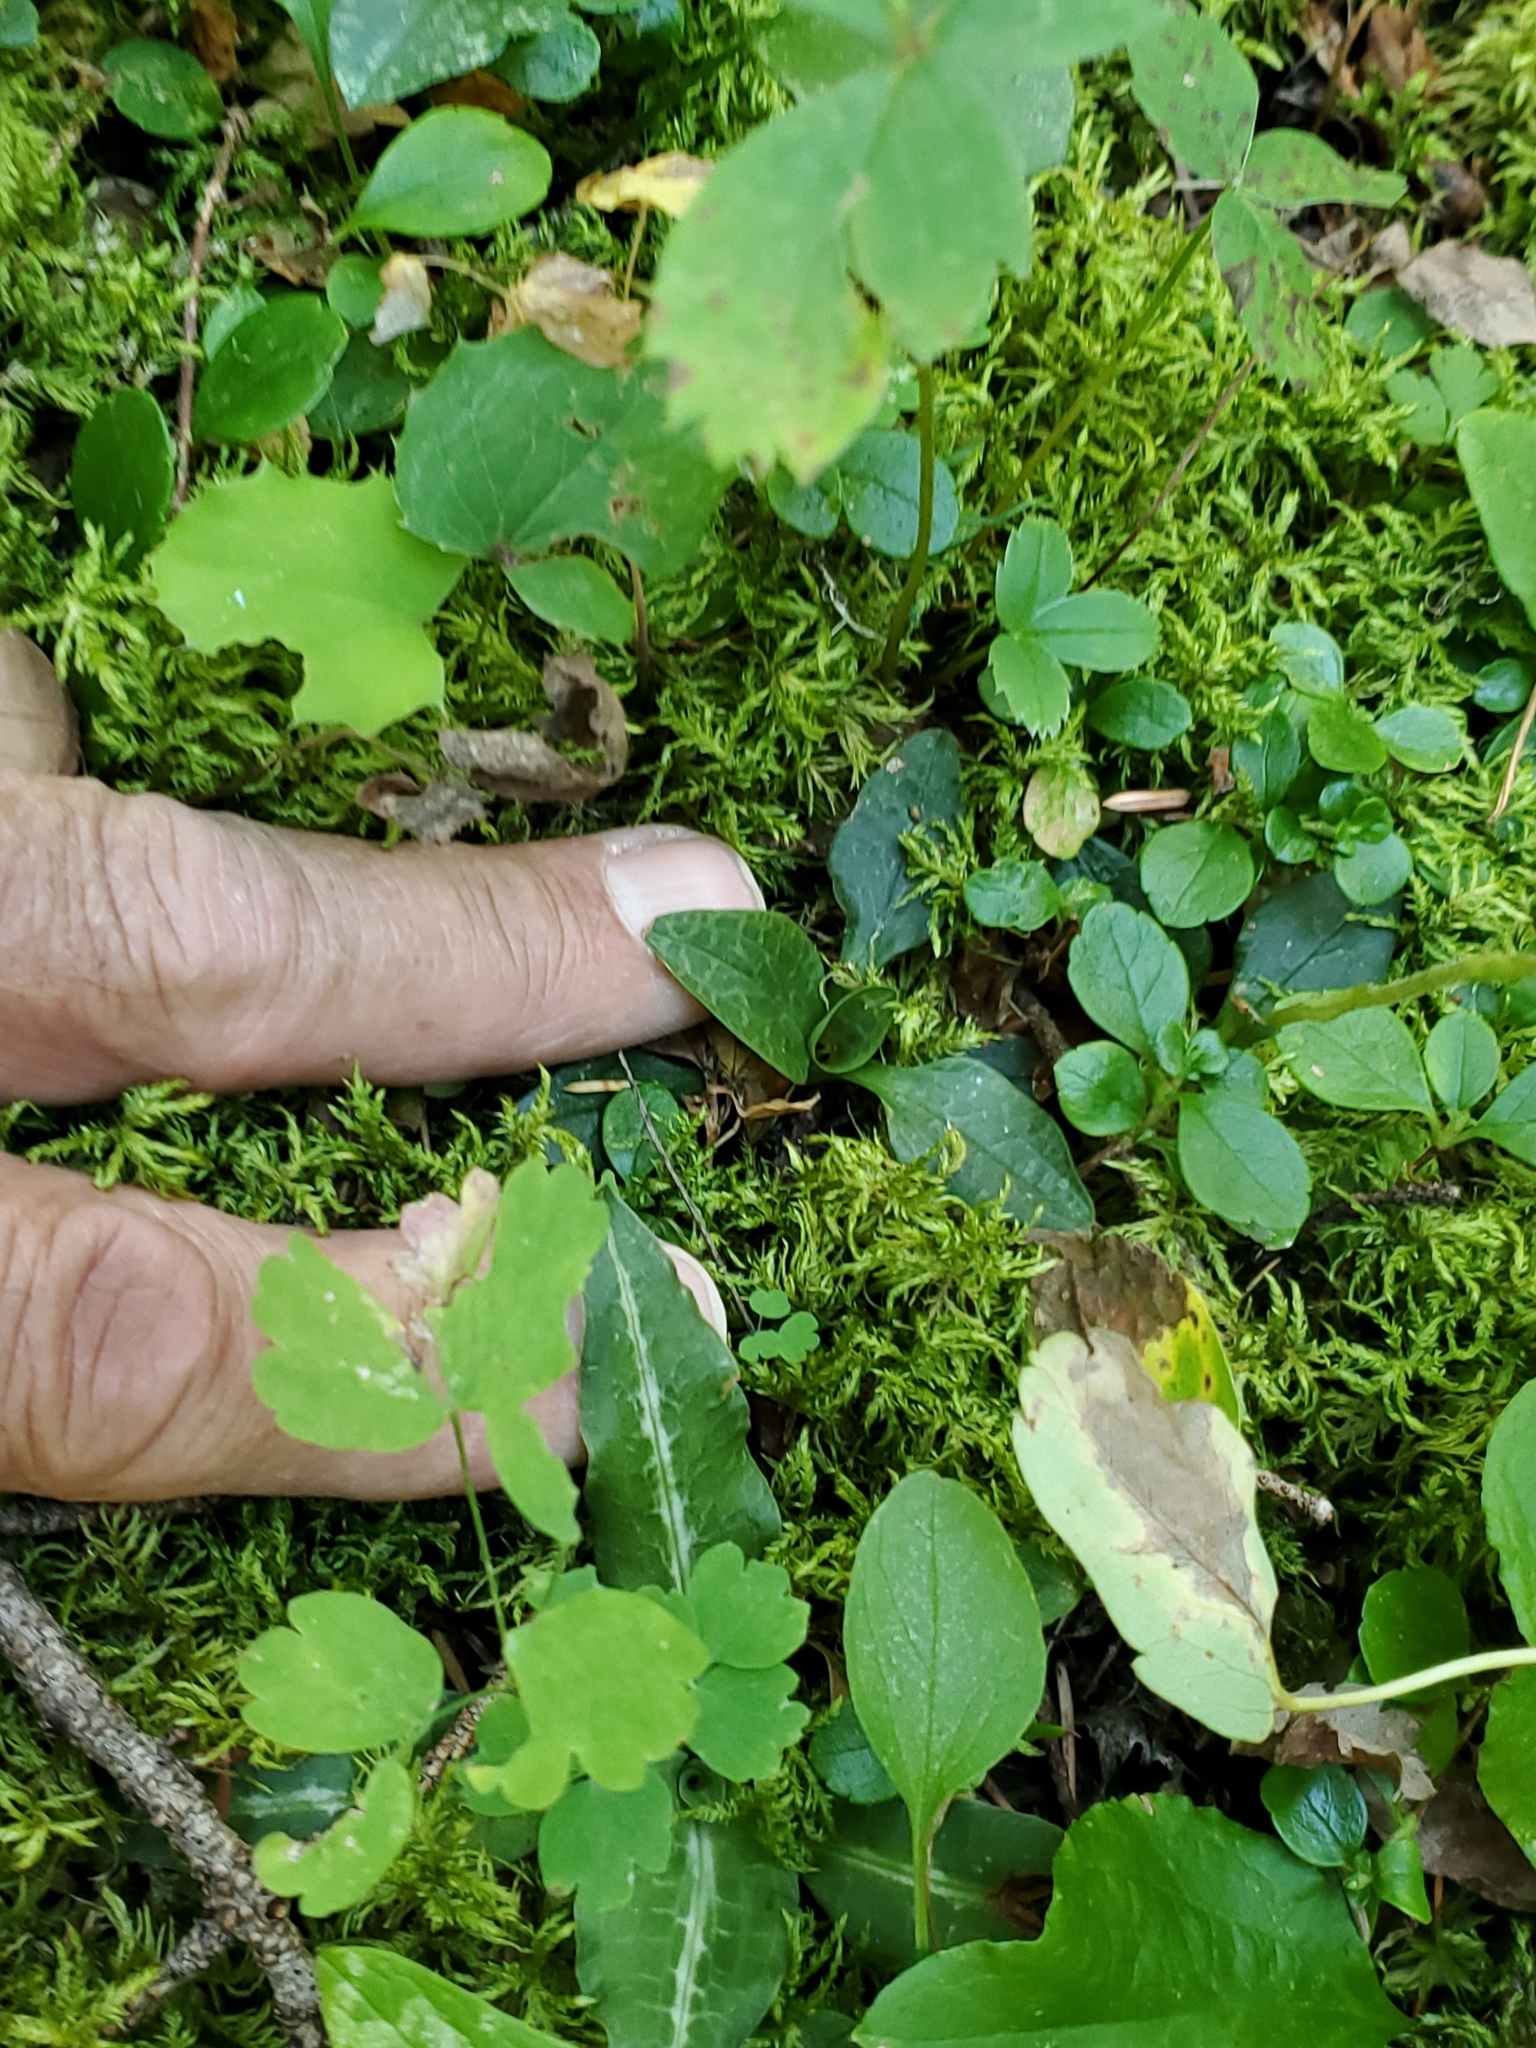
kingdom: Plantae
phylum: Tracheophyta
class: Liliopsida
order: Asparagales
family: Orchidaceae
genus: Goodyera
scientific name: Goodyera repens
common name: Creeping lady's-tresses
